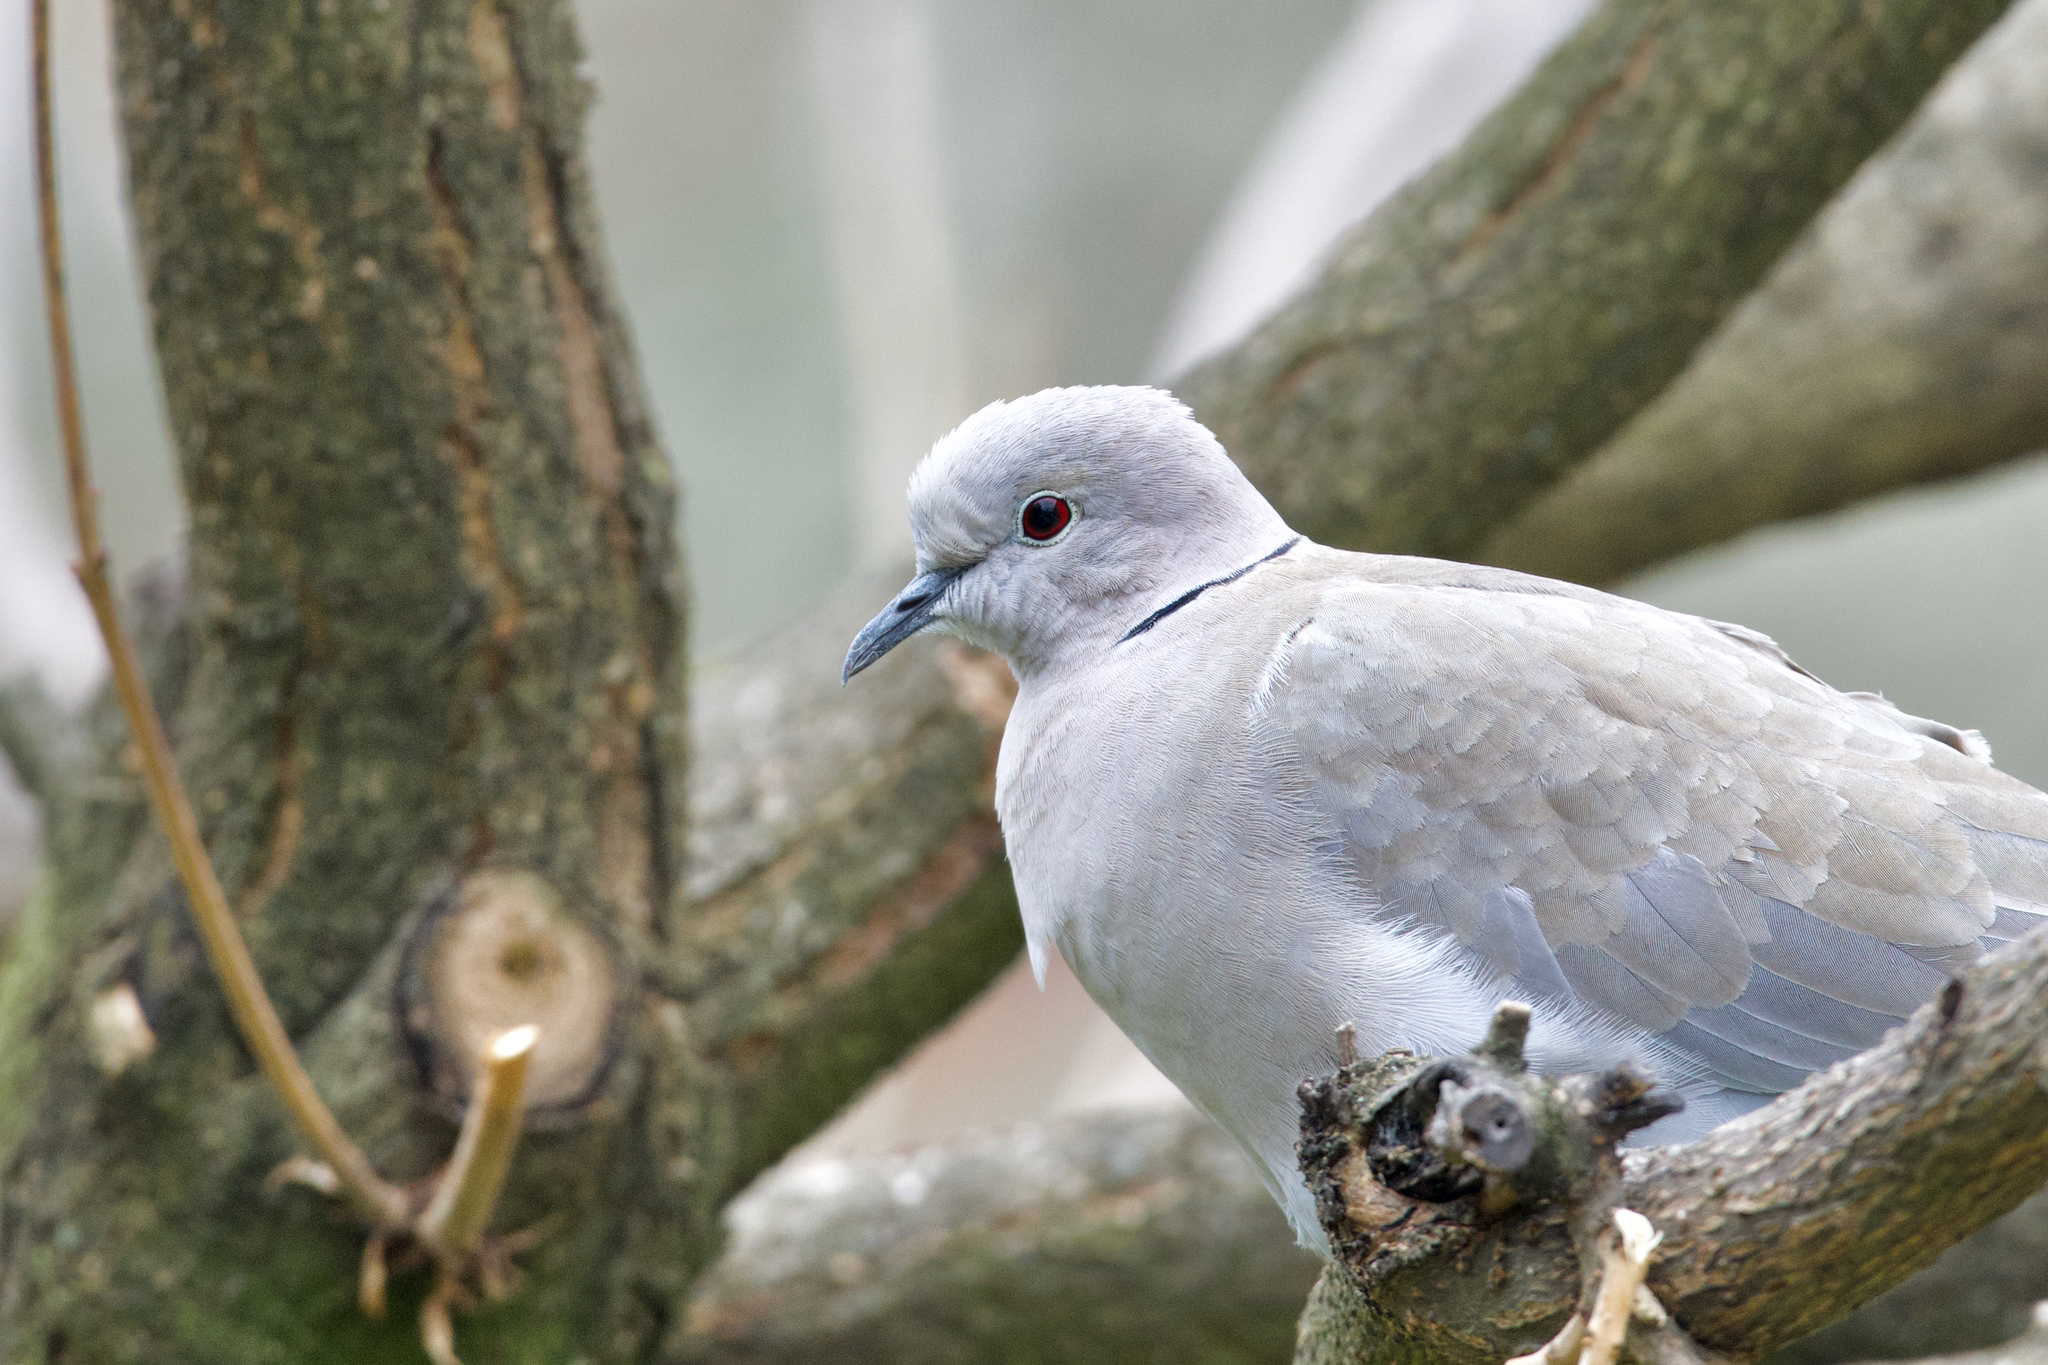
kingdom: Animalia
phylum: Chordata
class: Aves
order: Columbiformes
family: Columbidae
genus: Streptopelia
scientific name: Streptopelia decaocto
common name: Eurasian collared dove
